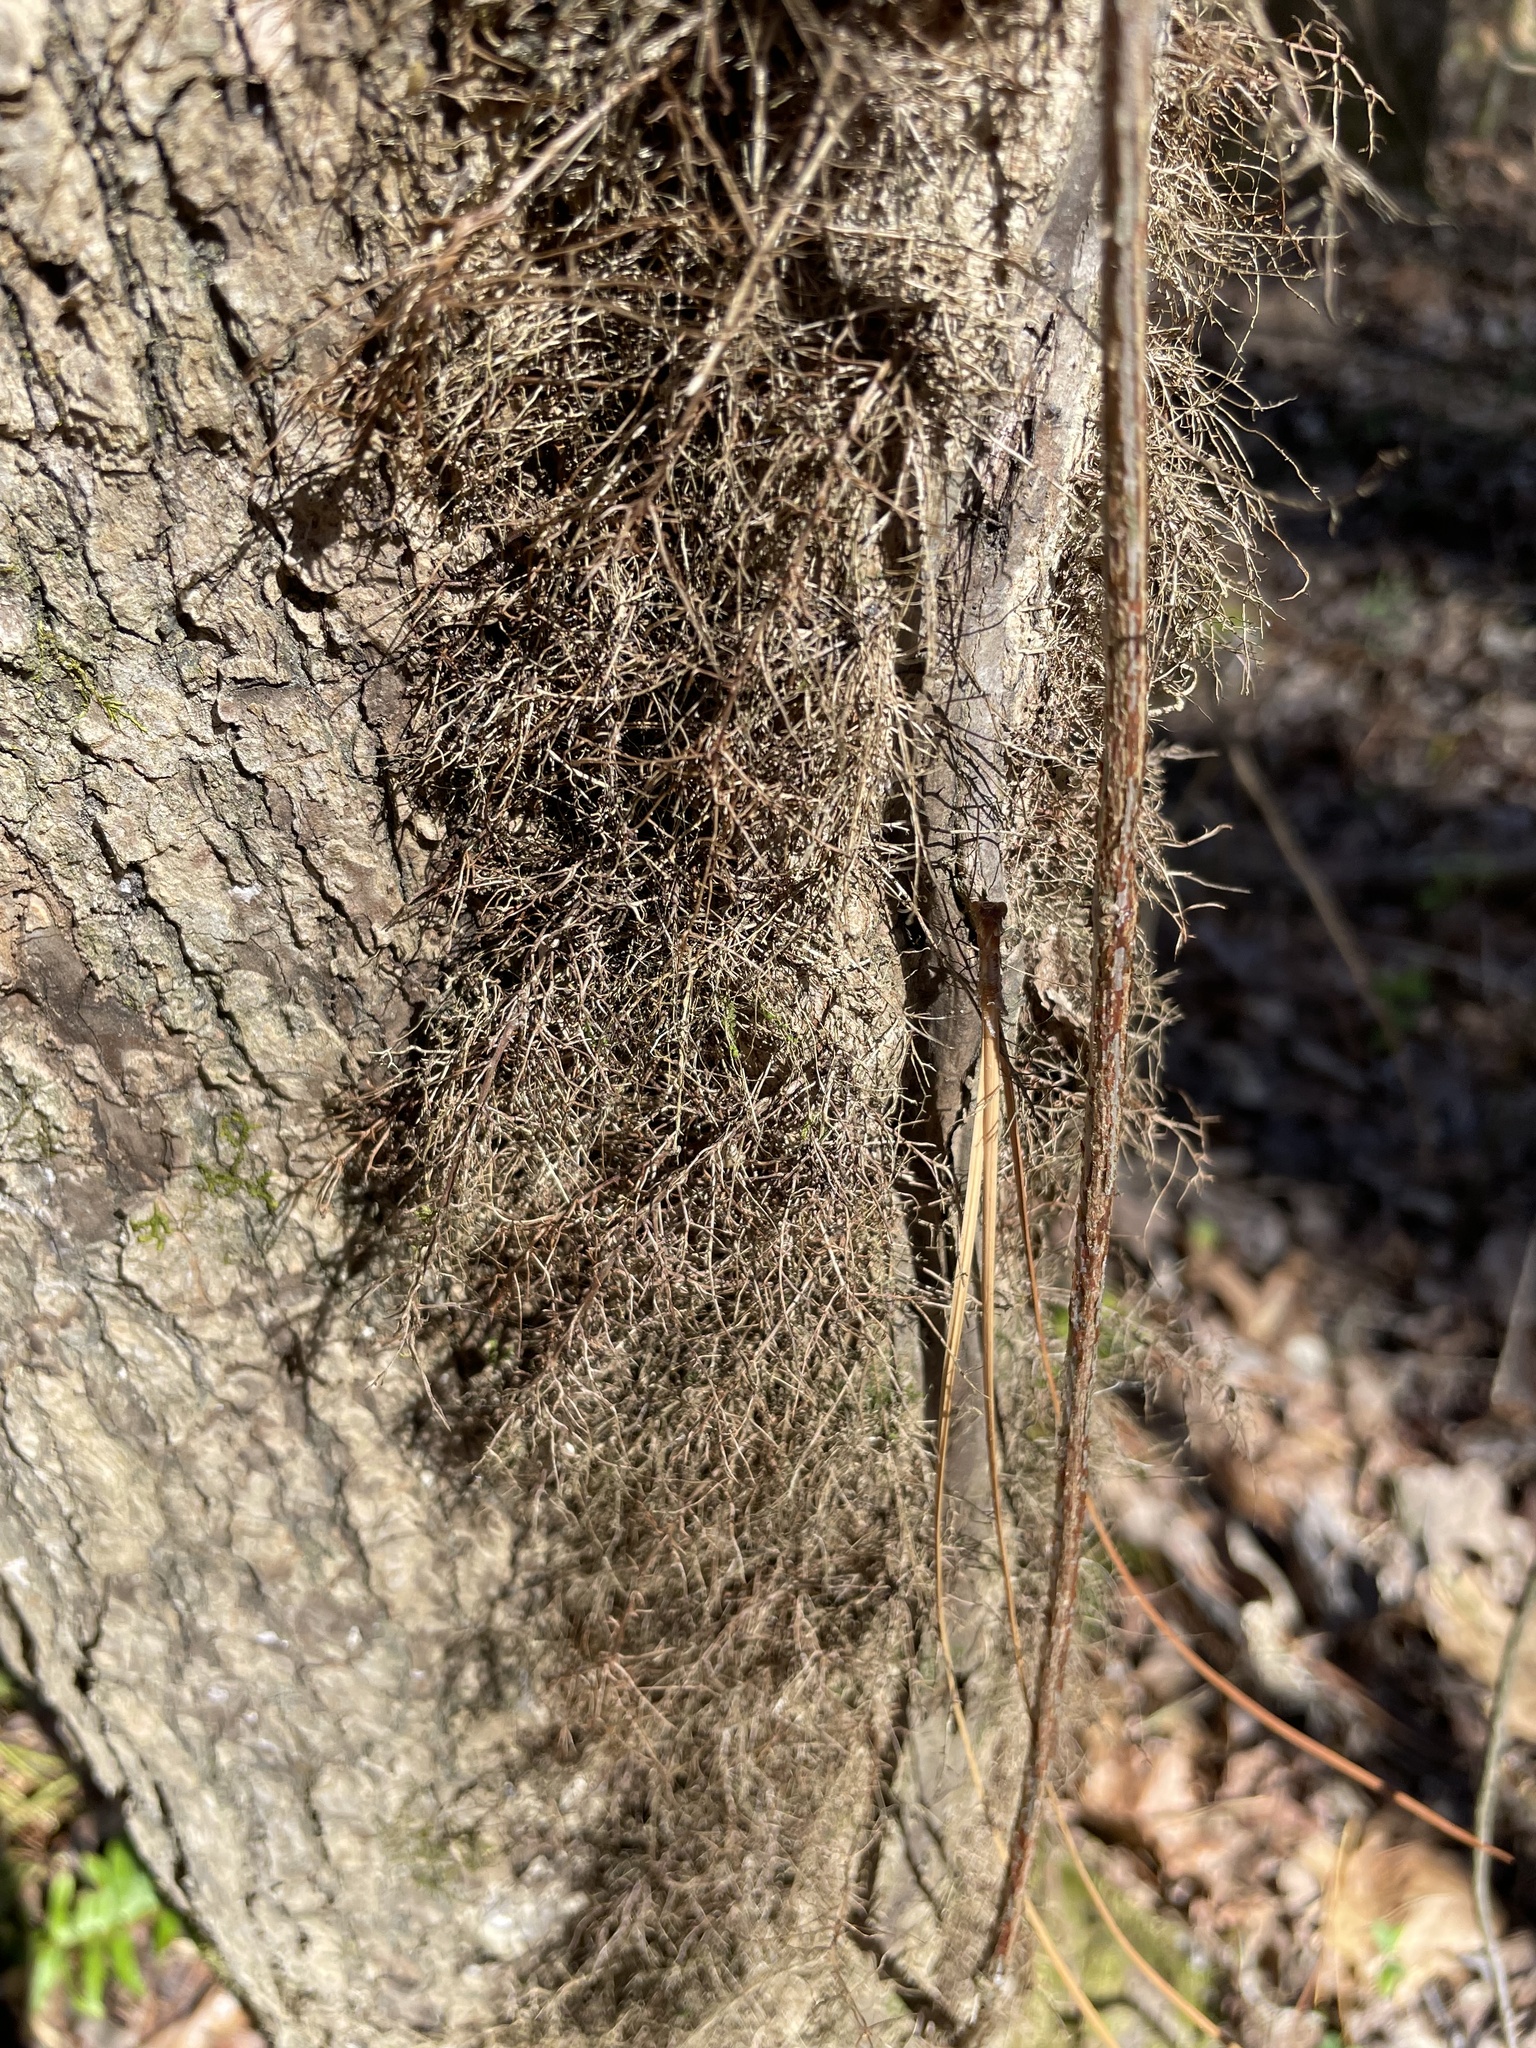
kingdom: Plantae
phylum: Tracheophyta
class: Magnoliopsida
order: Sapindales
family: Anacardiaceae
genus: Toxicodendron
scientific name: Toxicodendron radicans
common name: Poison ivy
